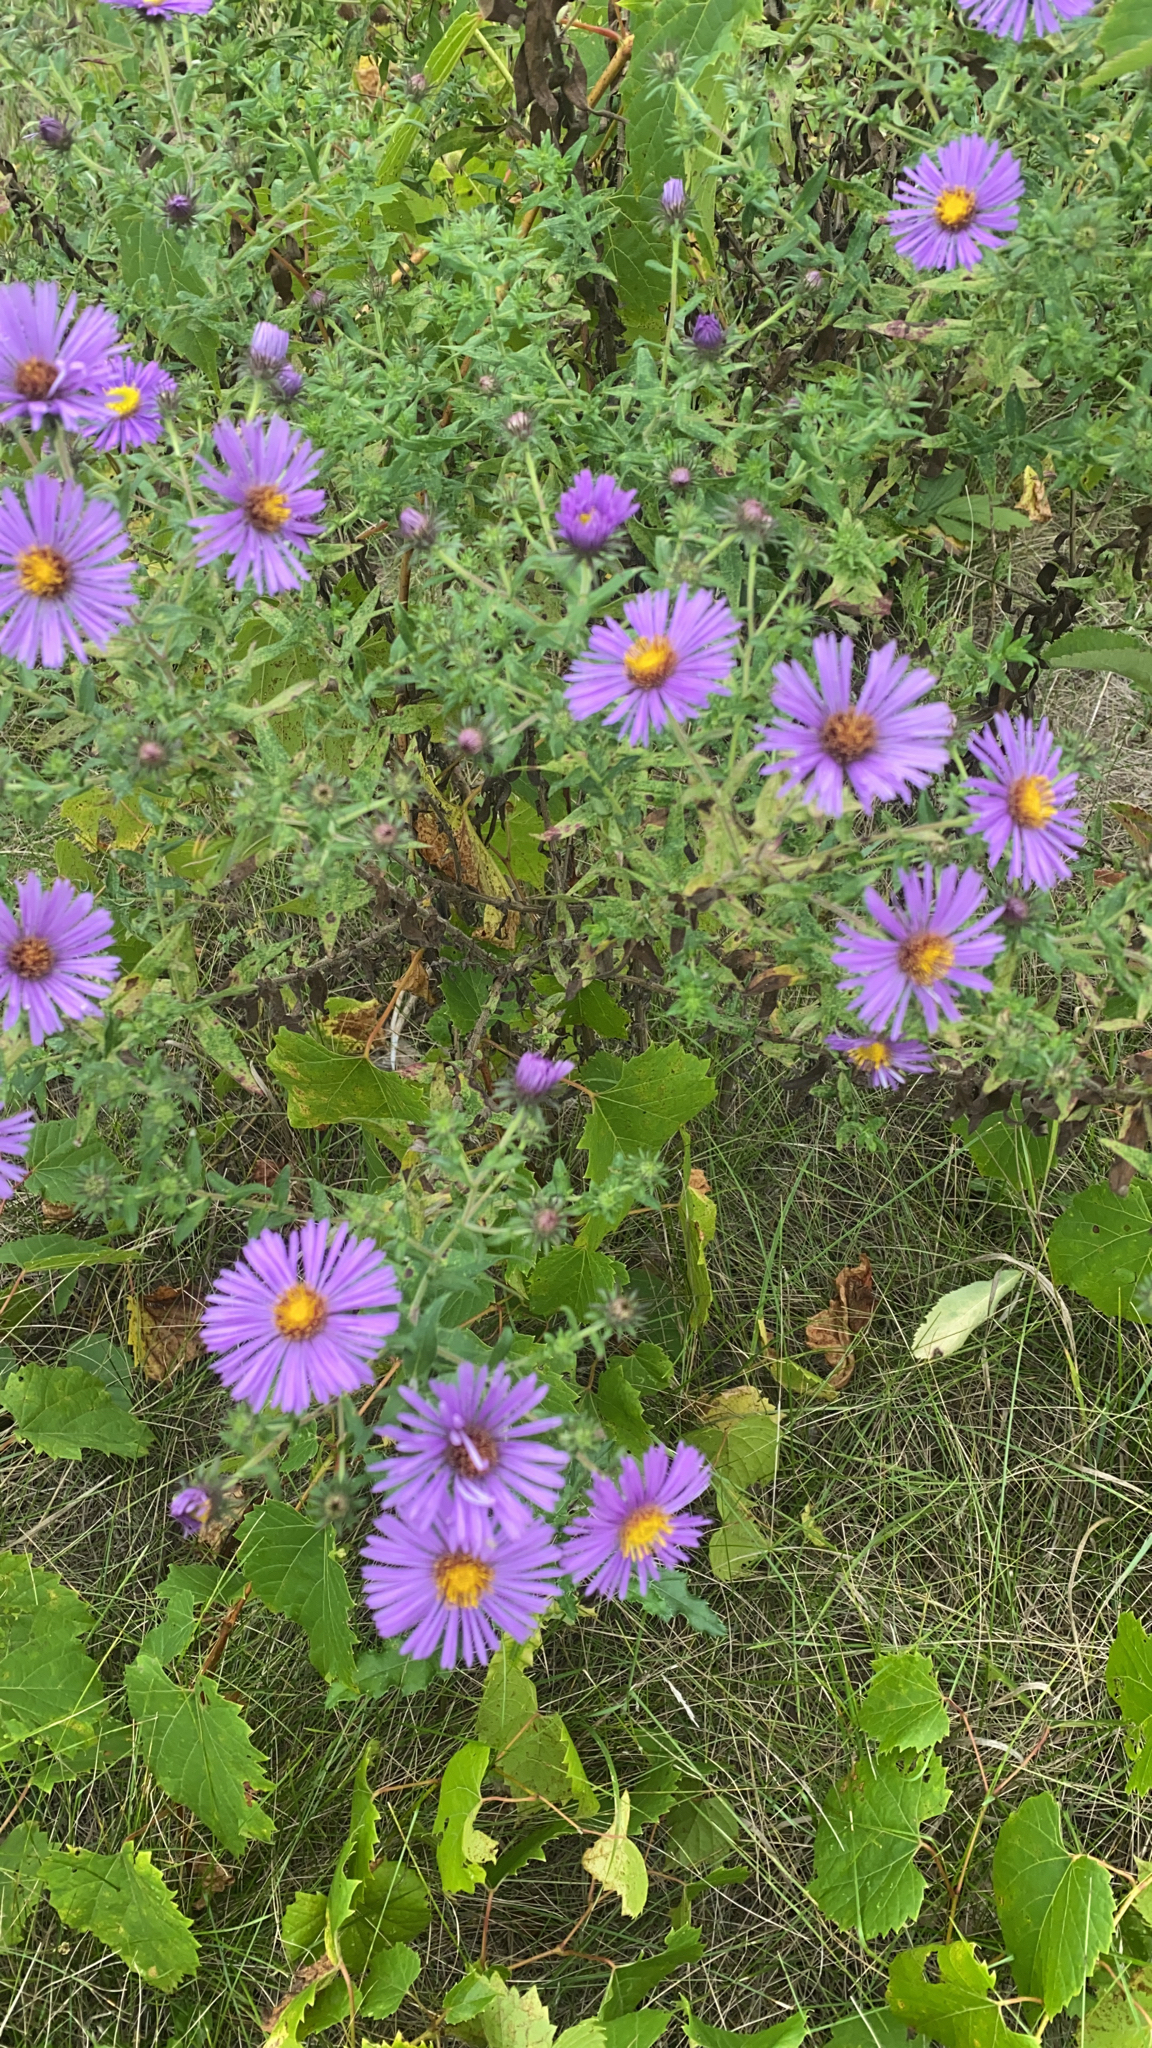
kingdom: Plantae
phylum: Tracheophyta
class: Magnoliopsida
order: Asterales
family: Asteraceae
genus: Symphyotrichum
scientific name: Symphyotrichum novae-angliae
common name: Michaelmas daisy
